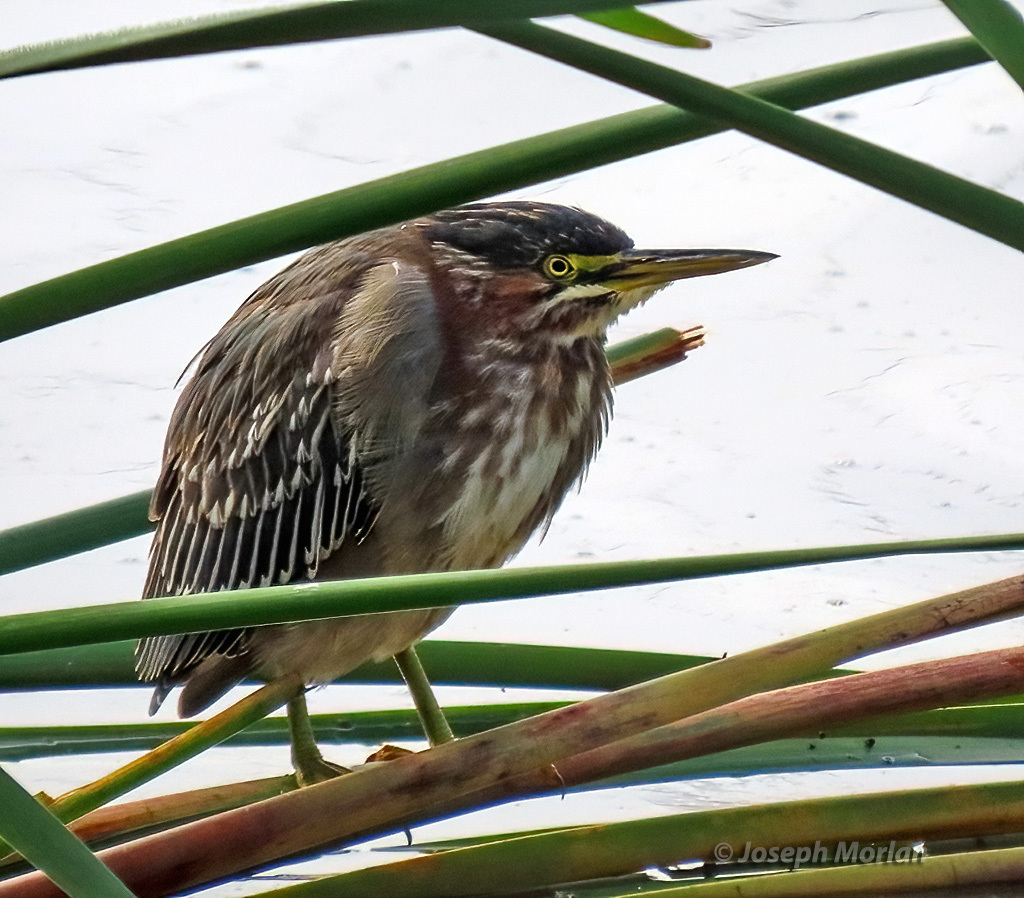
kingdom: Animalia
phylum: Chordata
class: Aves
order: Pelecaniformes
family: Ardeidae
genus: Butorides
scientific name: Butorides virescens
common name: Green heron
